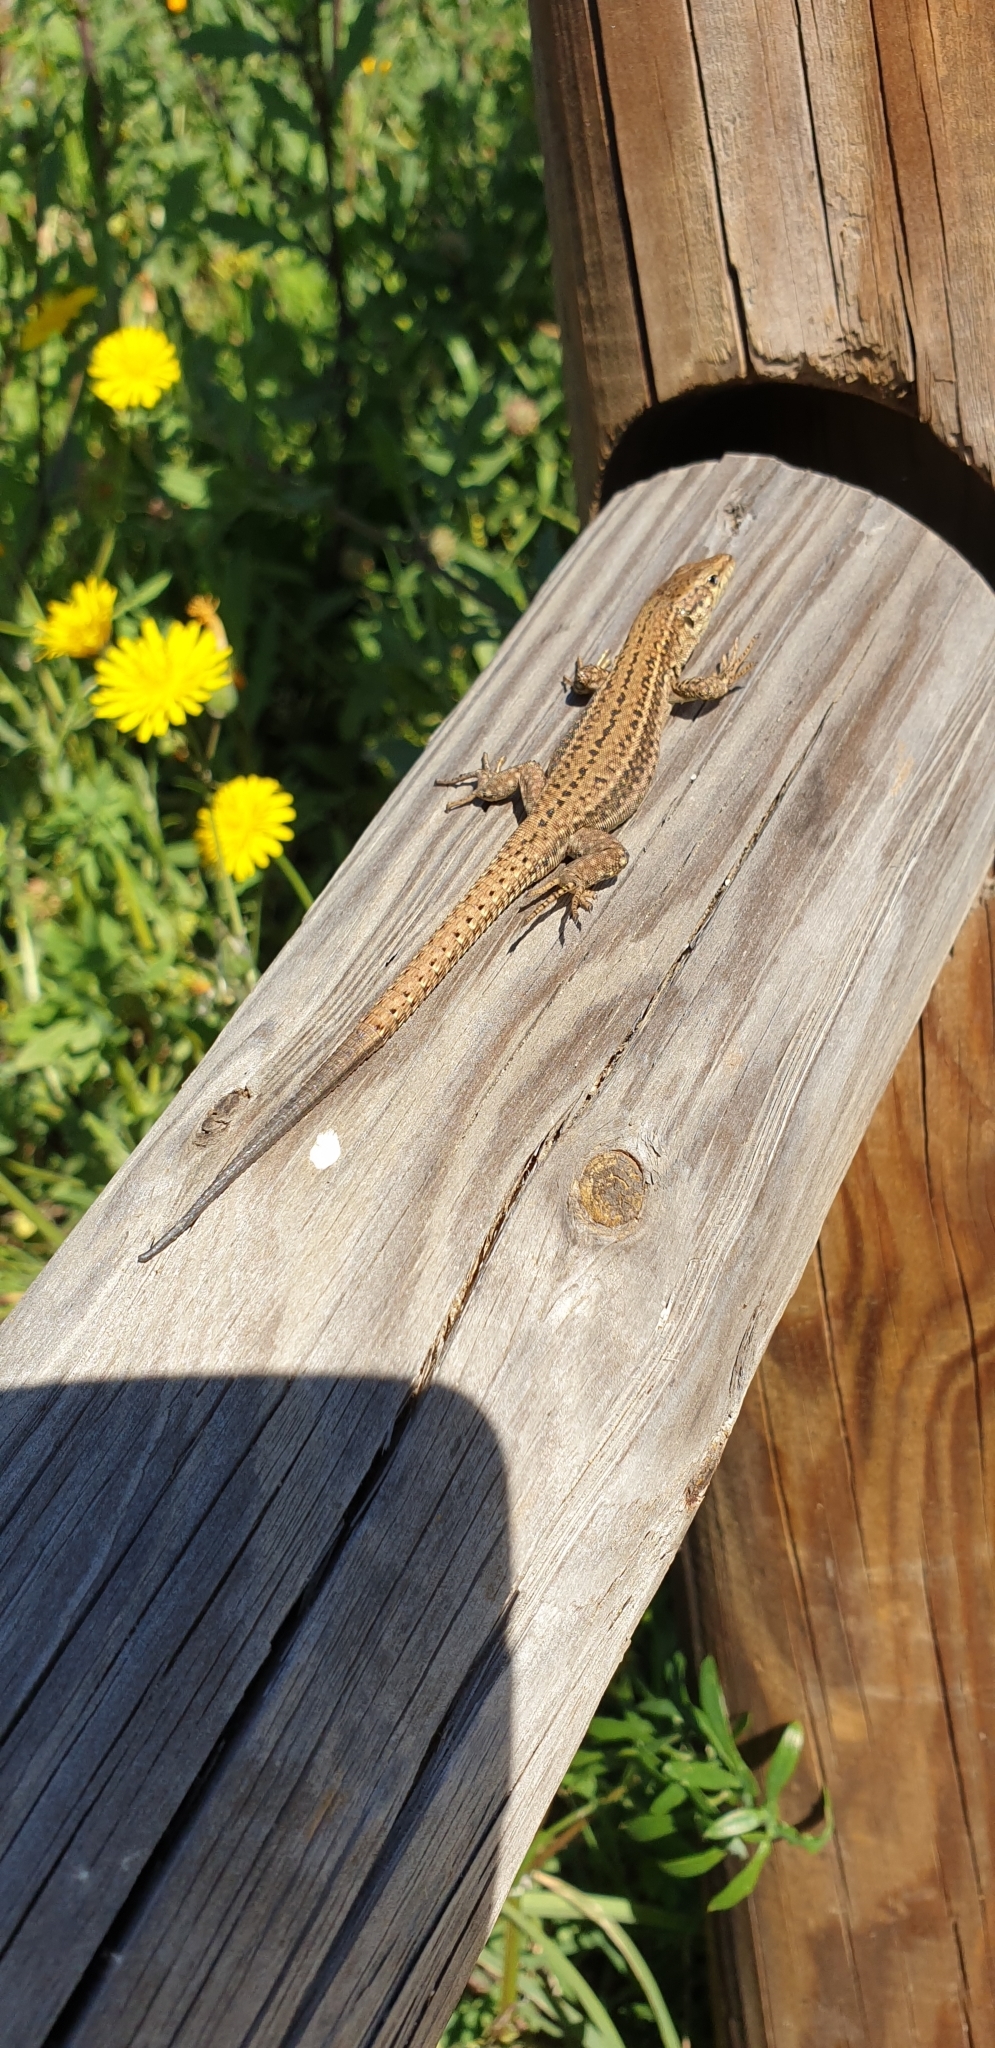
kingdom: Animalia
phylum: Chordata
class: Squamata
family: Lacertidae
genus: Podarcis
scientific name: Podarcis liolepis
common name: Catalonian wall lizard
